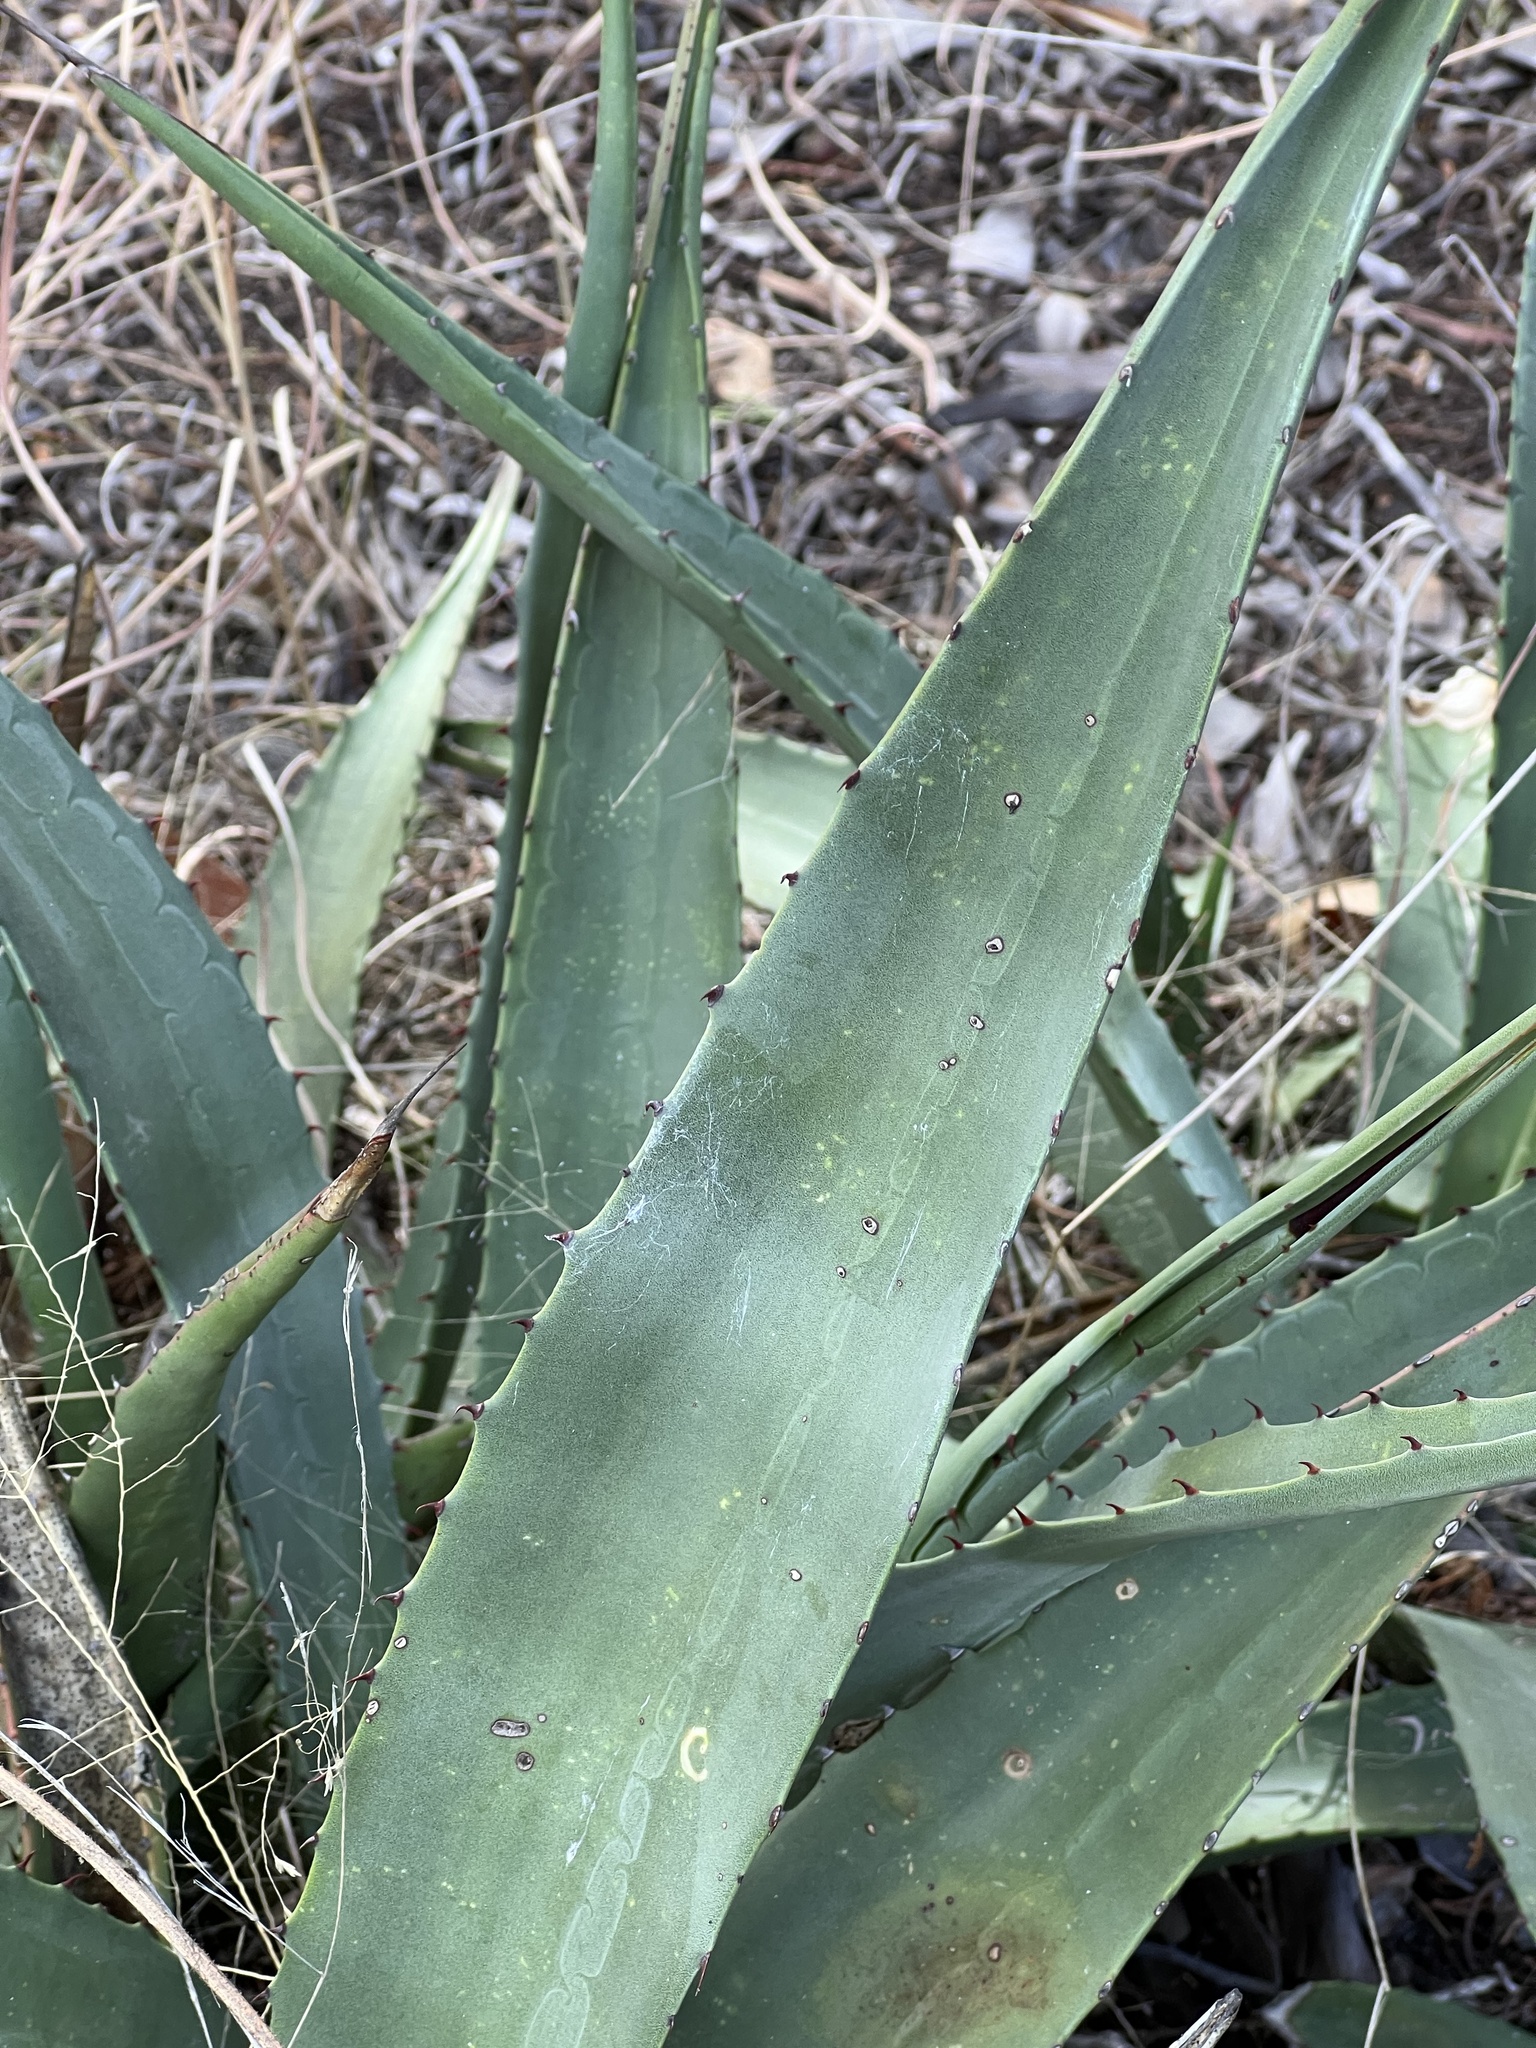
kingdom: Plantae
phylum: Tracheophyta
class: Liliopsida
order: Asparagales
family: Asparagaceae
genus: Agave
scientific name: Agave palmeri
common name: Palmer agave
